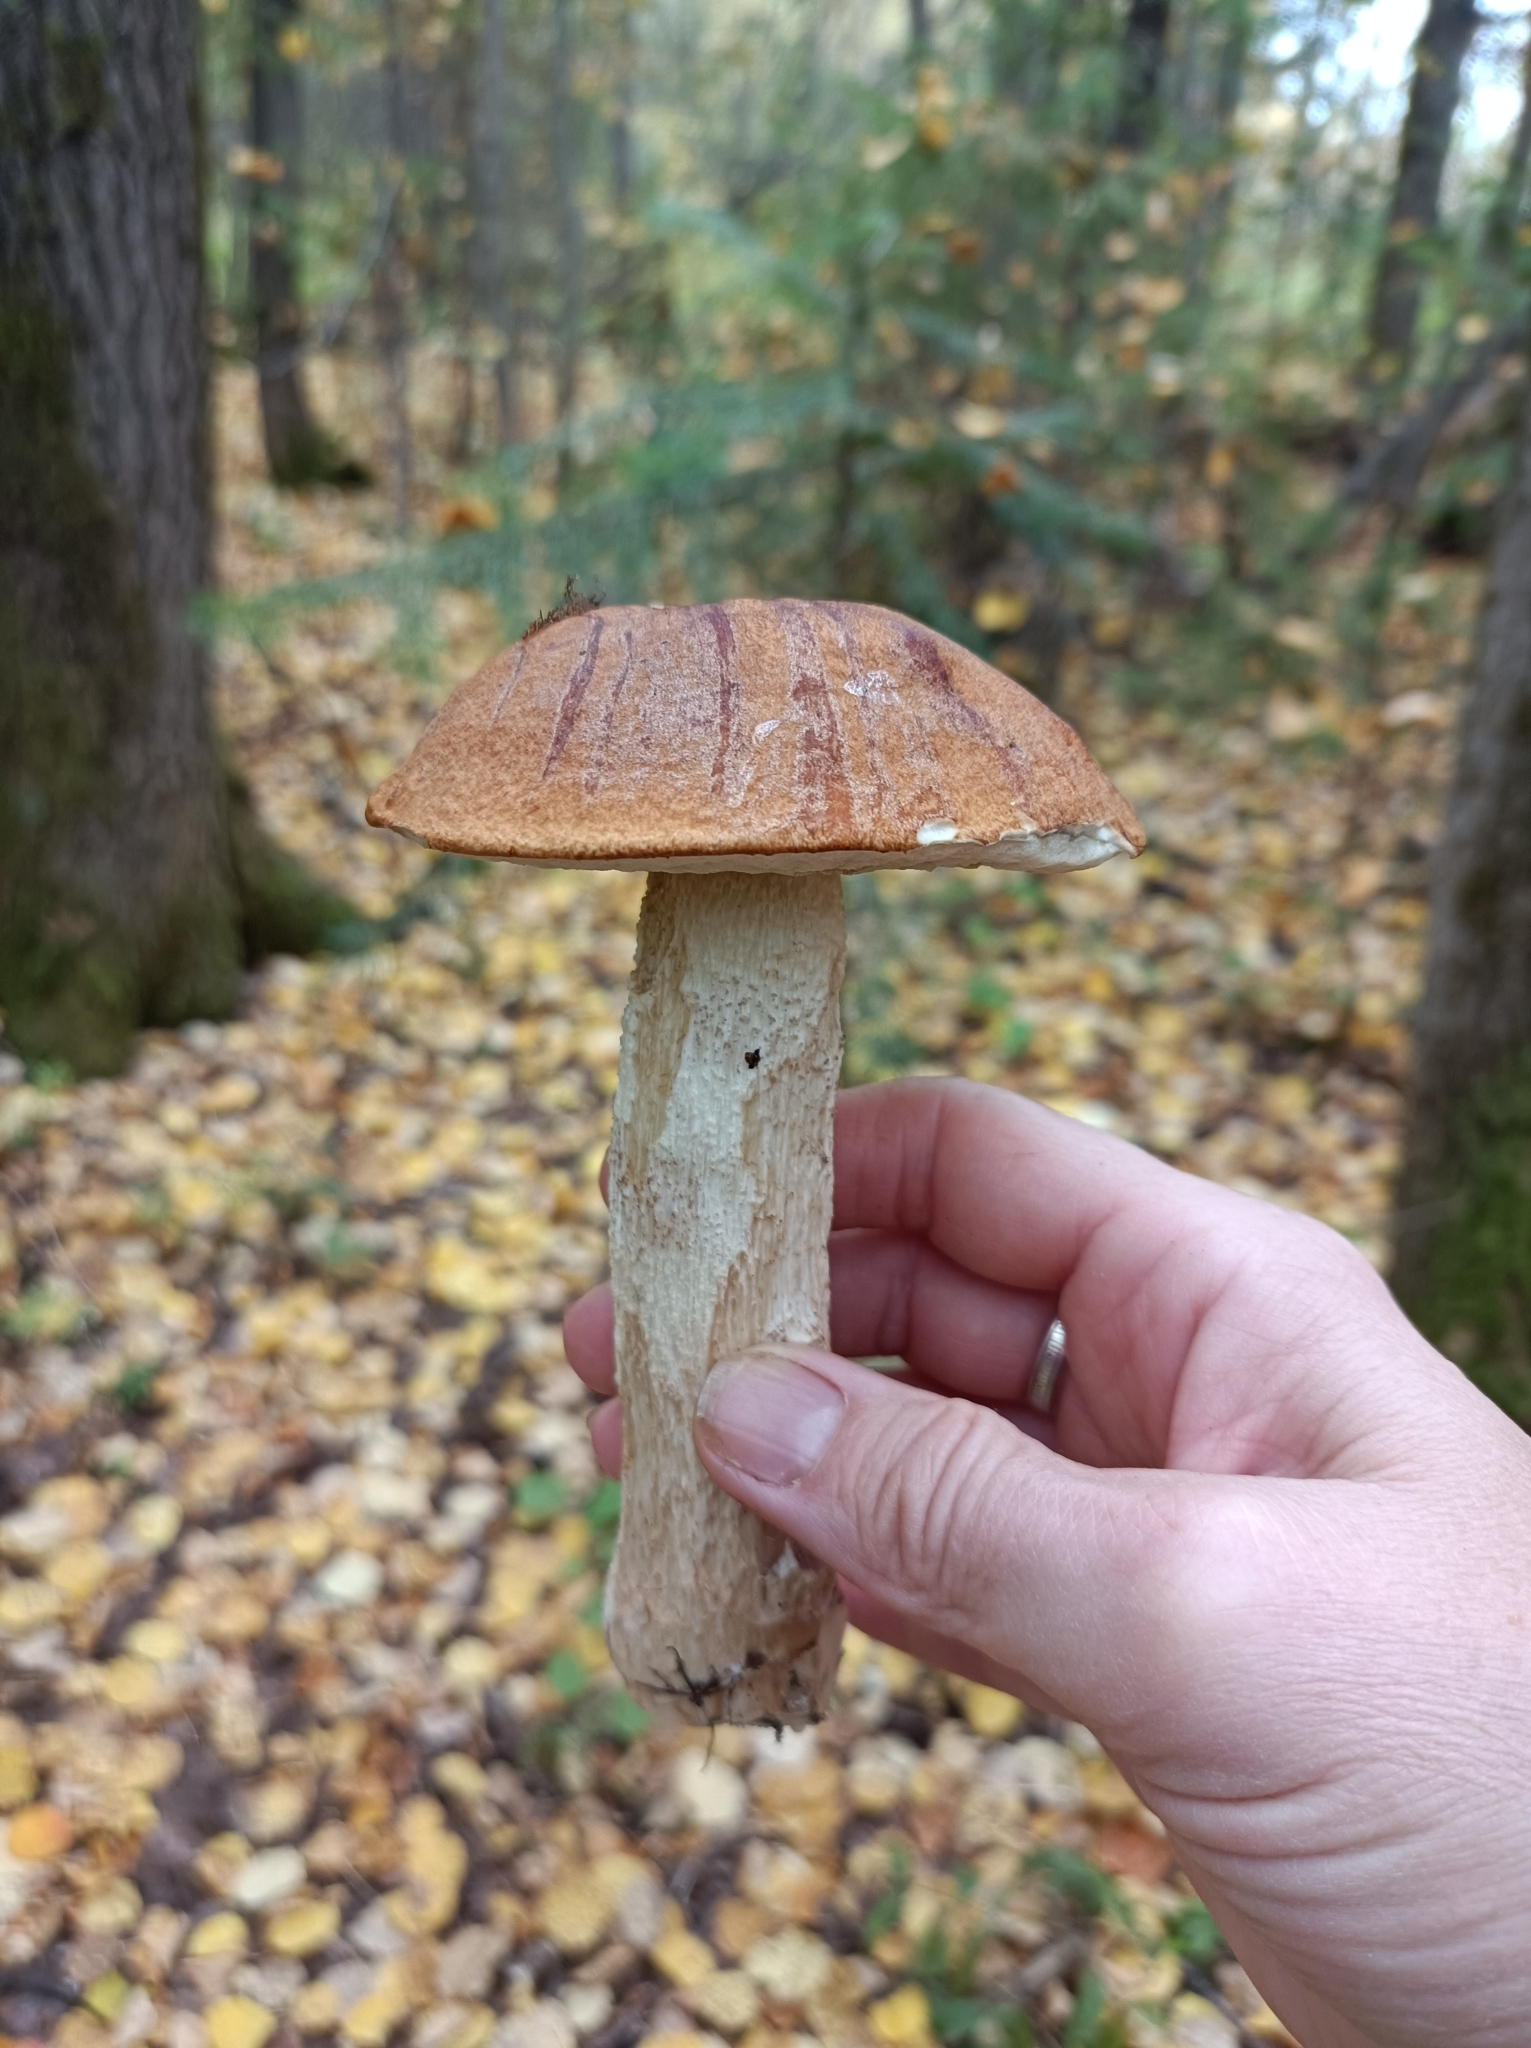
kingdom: Fungi
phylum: Basidiomycota
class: Agaricomycetes
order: Boletales
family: Boletaceae
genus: Leccinum
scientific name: Leccinum aurantiacum
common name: Orange bolete
